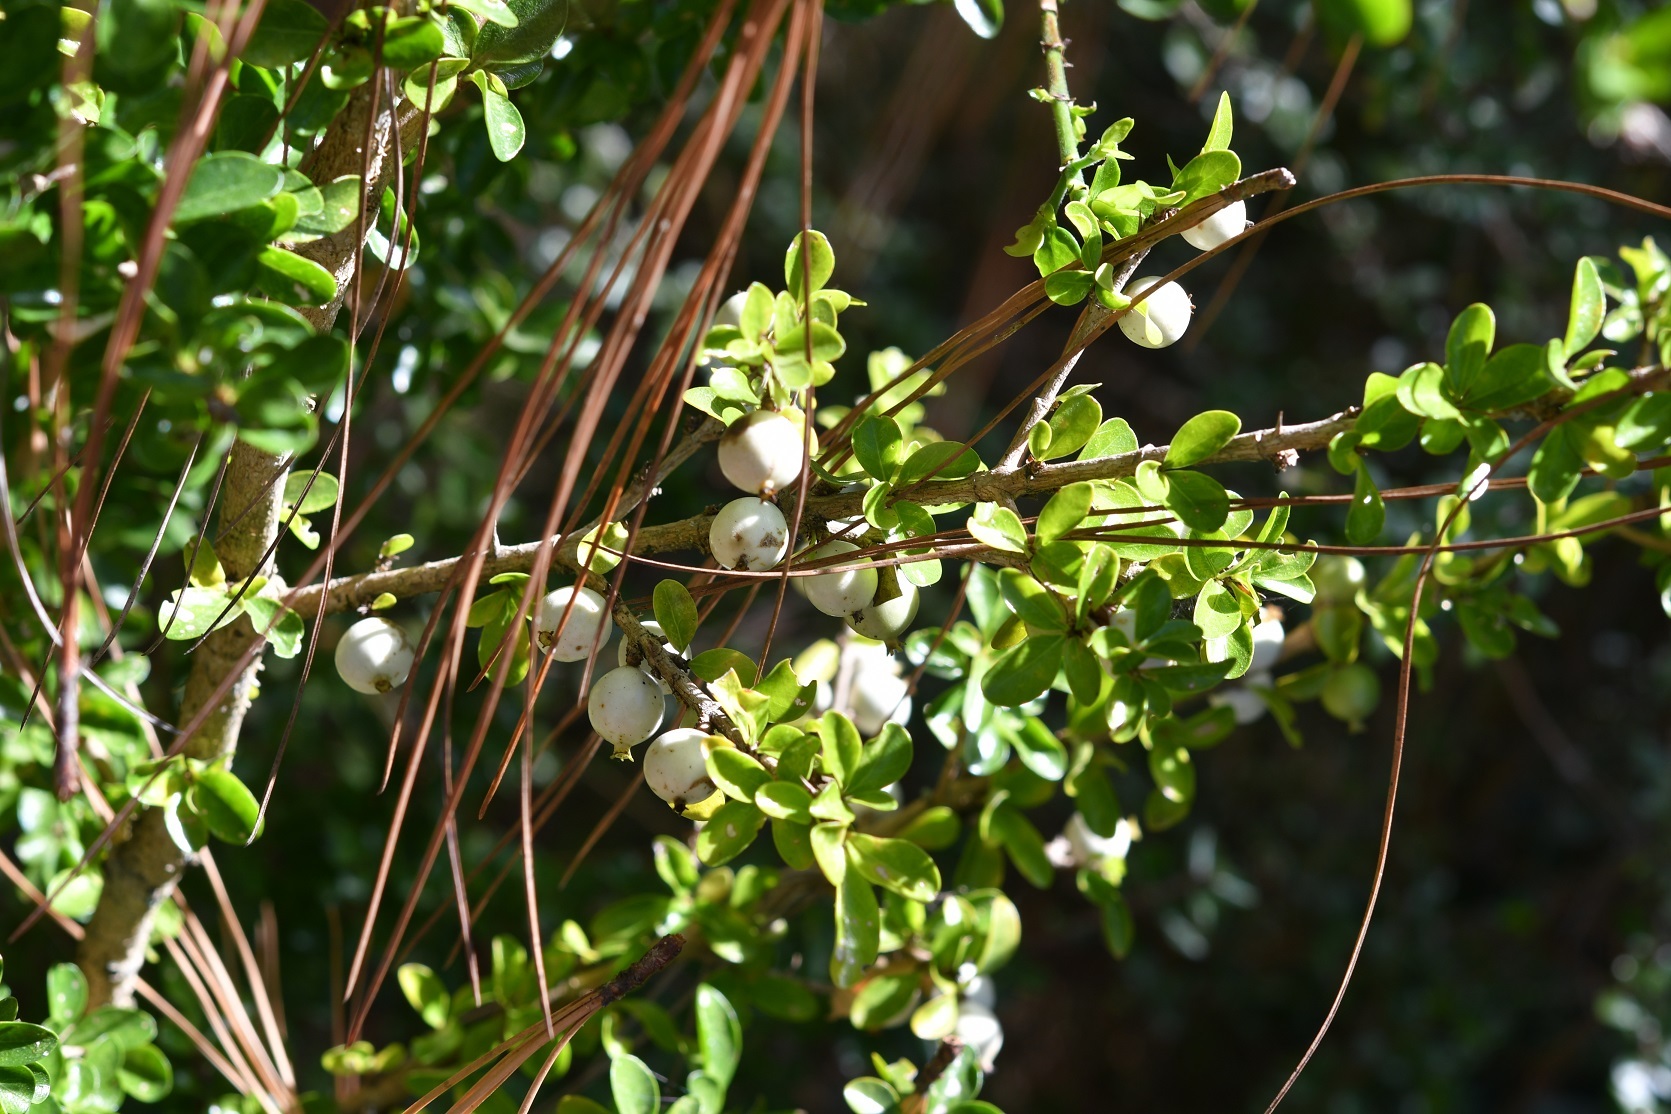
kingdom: Plantae
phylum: Tracheophyta
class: Magnoliopsida
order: Gentianales
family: Rubiaceae
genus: Randia
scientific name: Randia chiapensis
